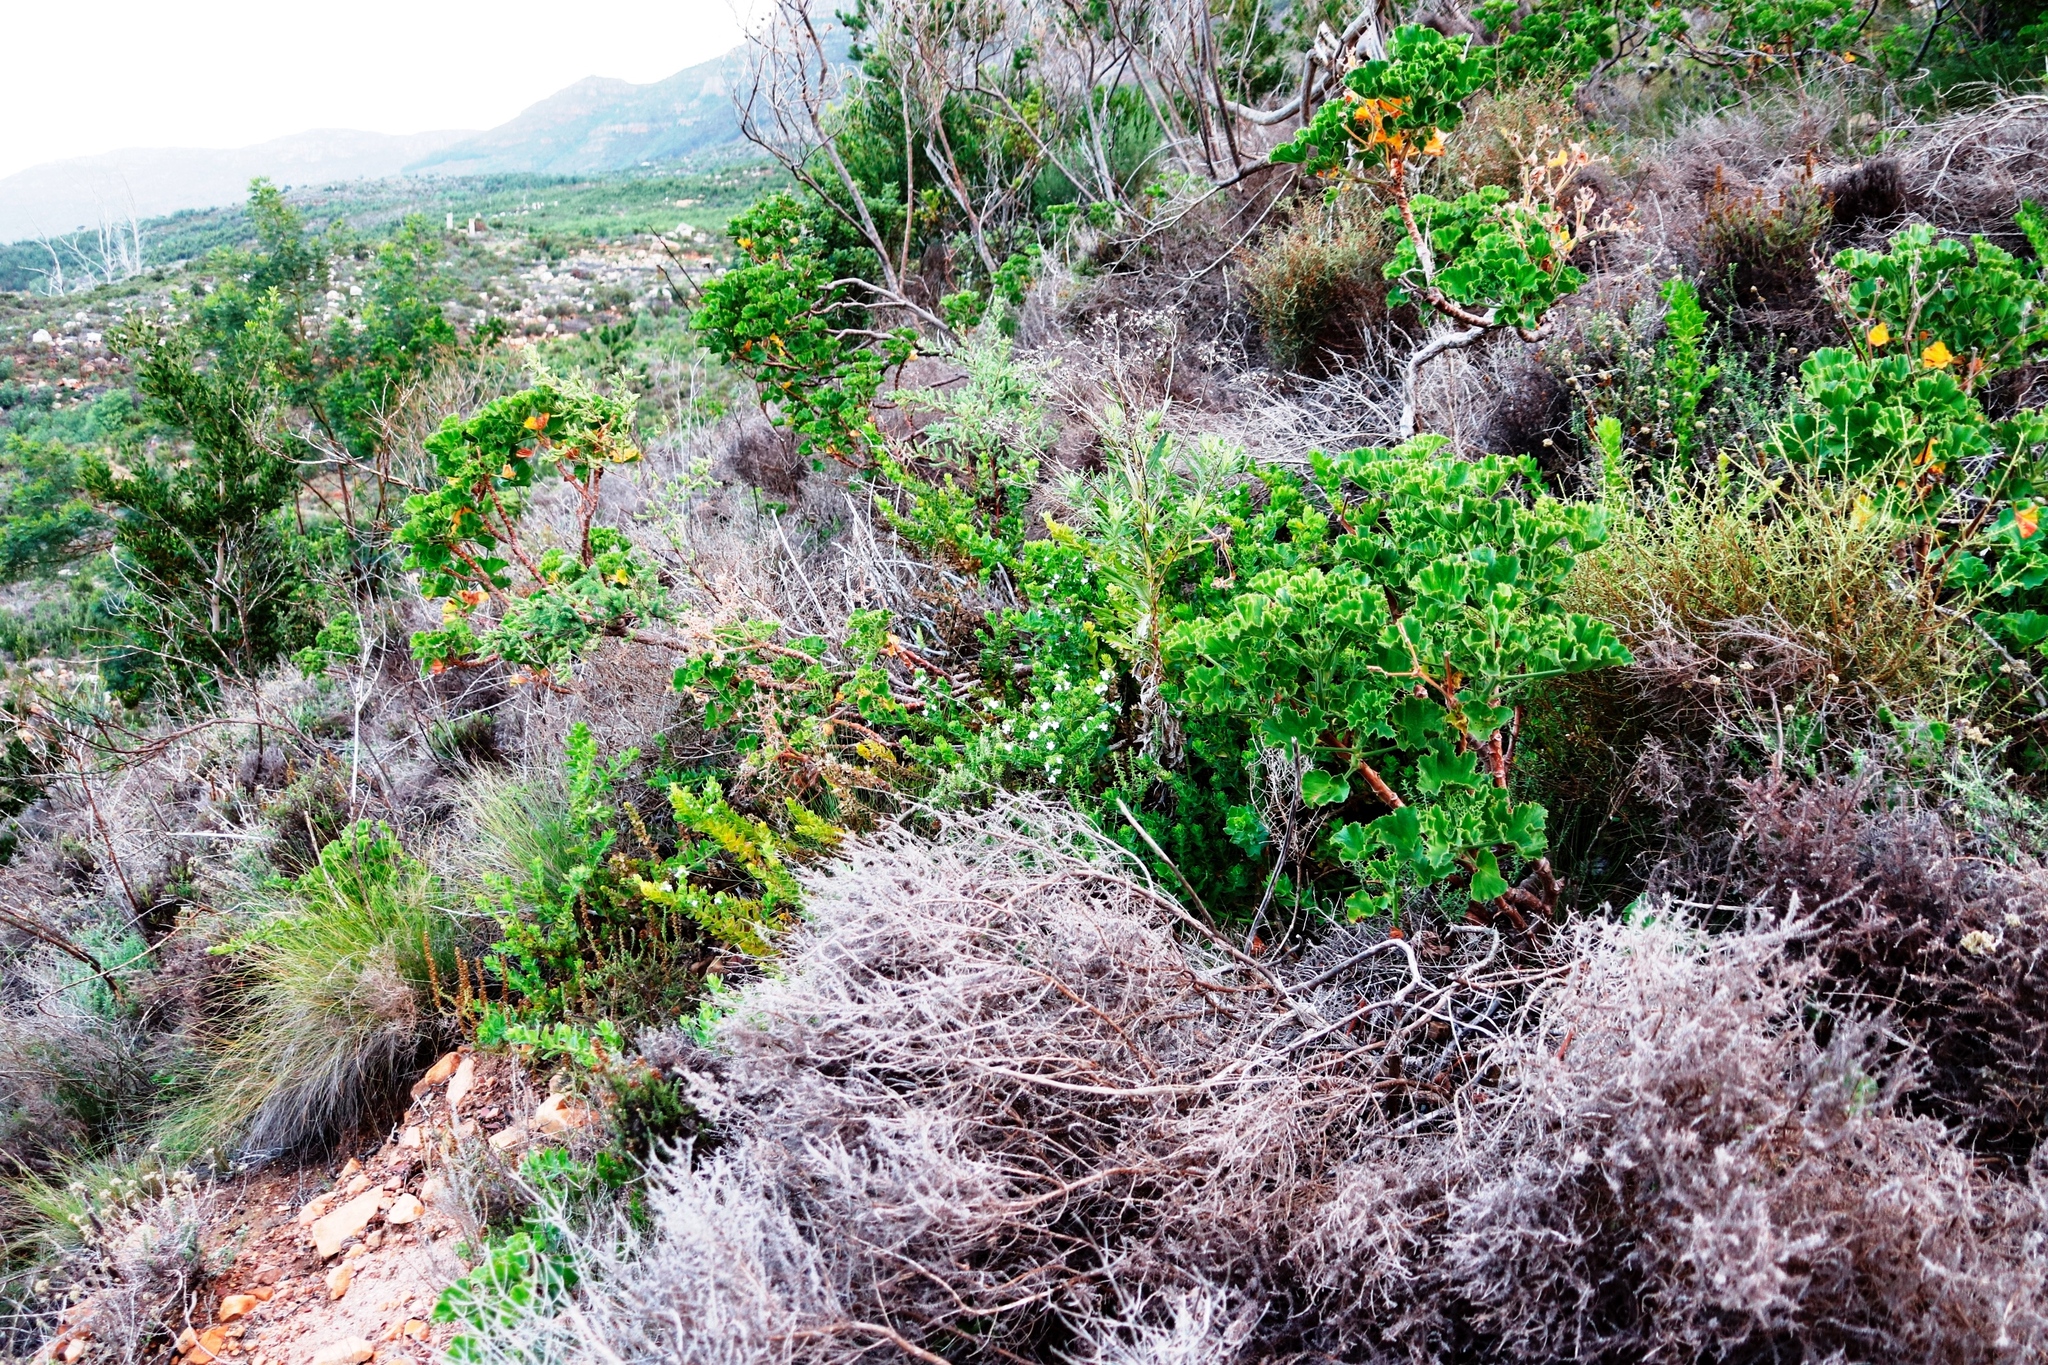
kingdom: Plantae
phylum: Tracheophyta
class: Magnoliopsida
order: Geraniales
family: Geraniaceae
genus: Pelargonium
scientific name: Pelargonium cucullatum
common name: Tree pelargonium
